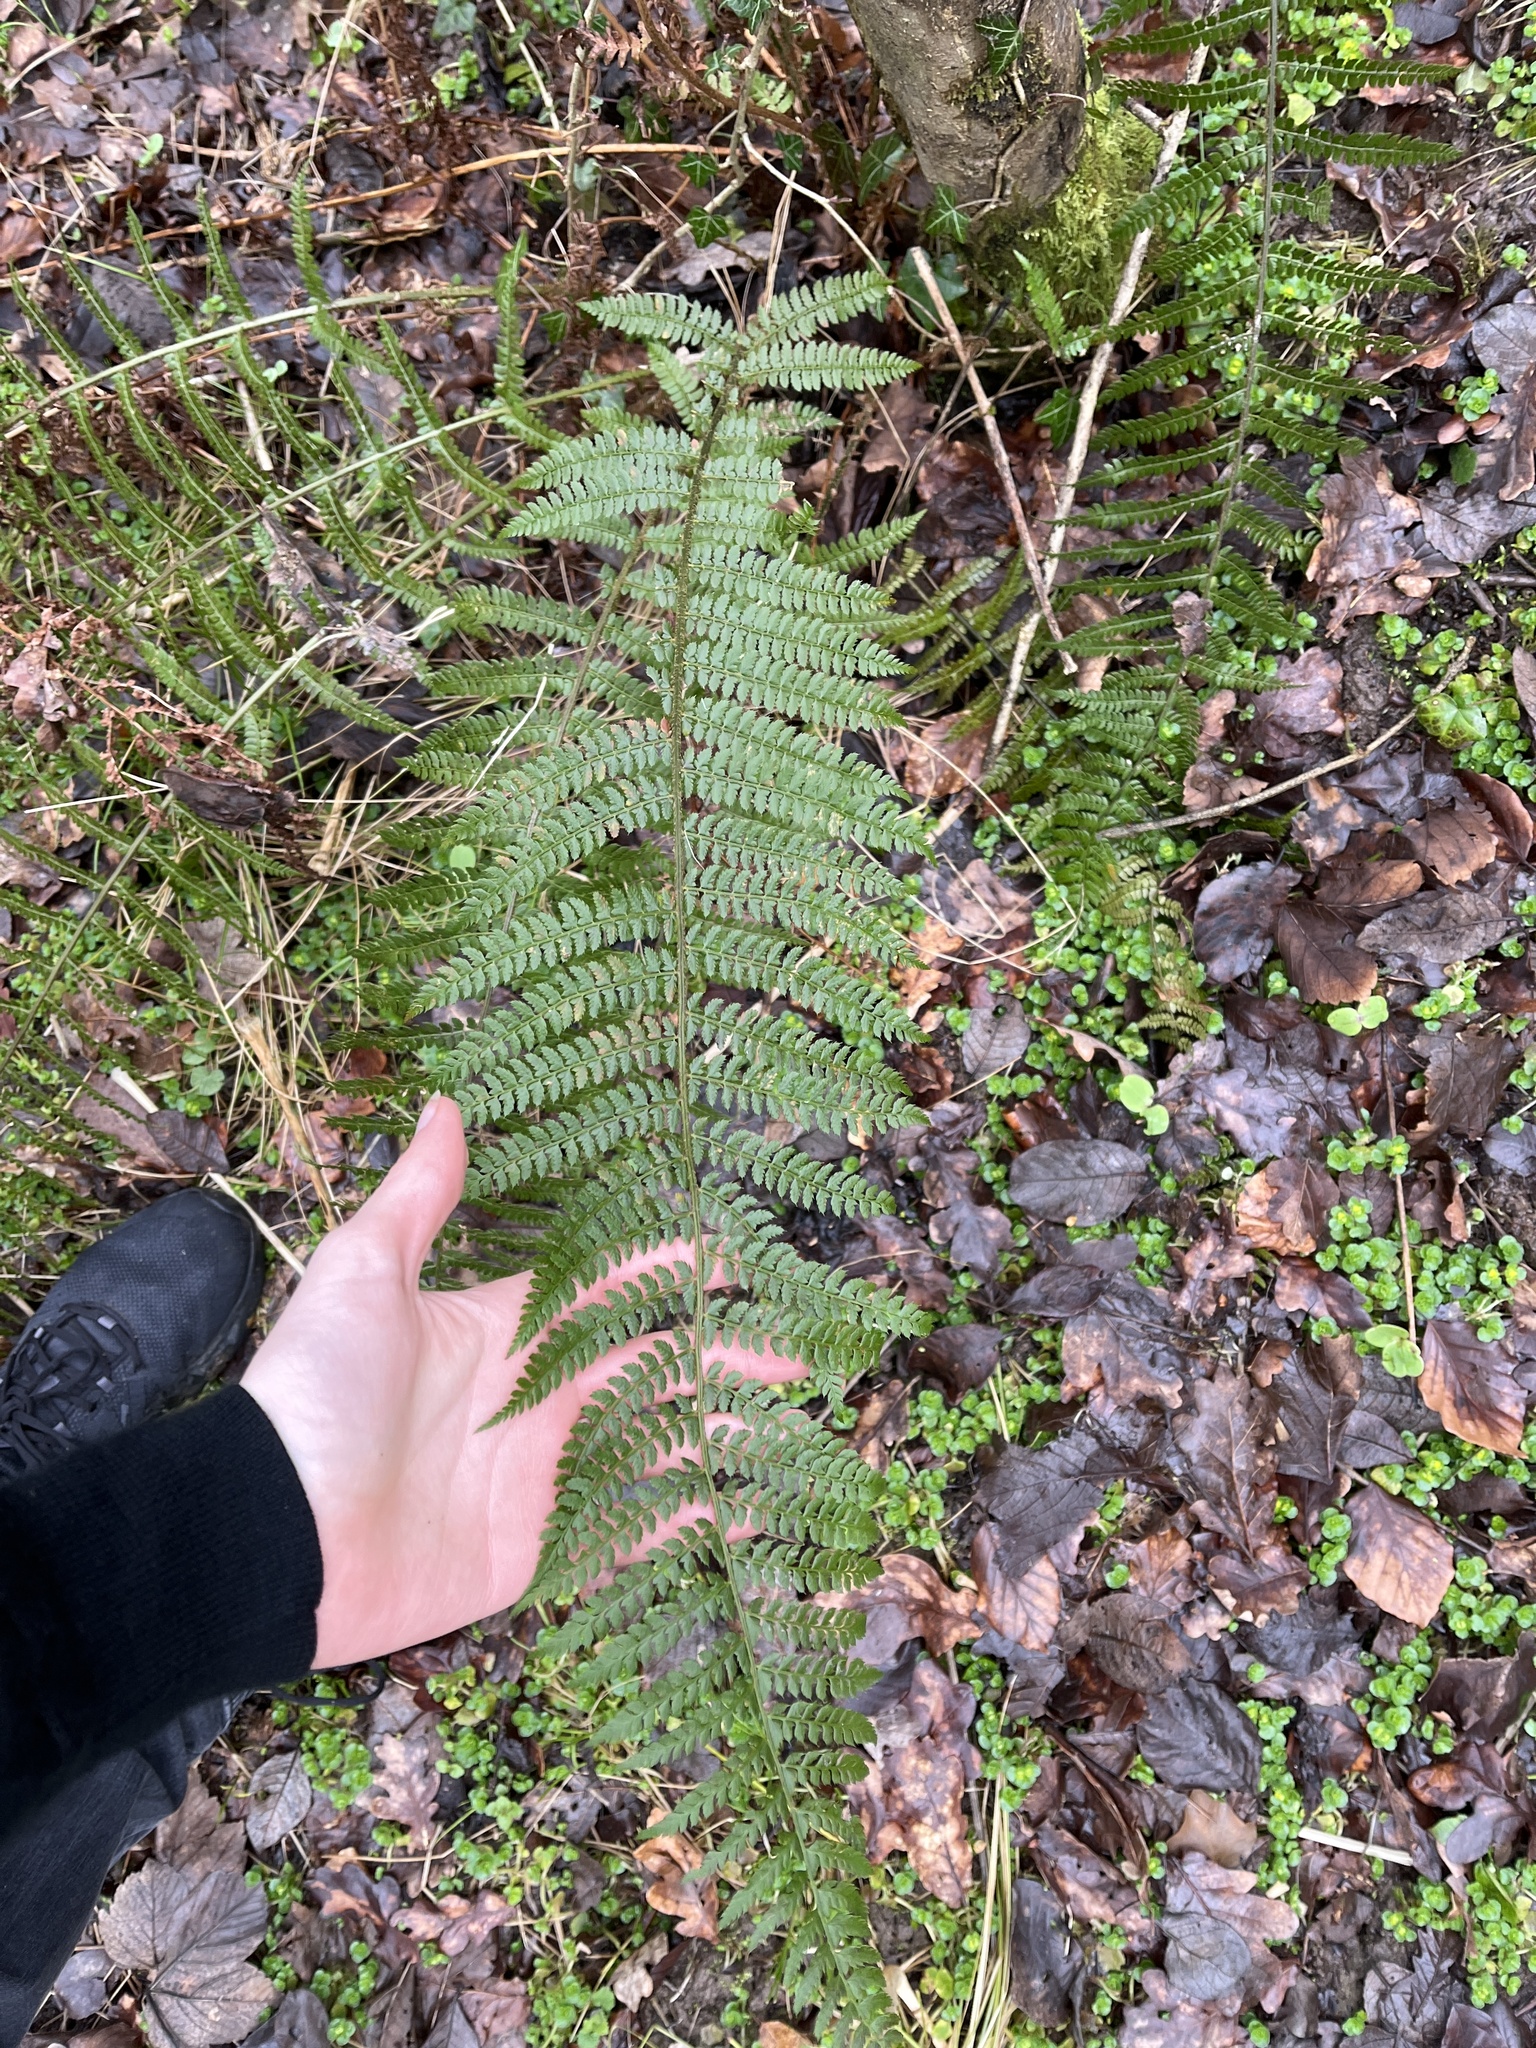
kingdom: Plantae
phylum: Tracheophyta
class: Polypodiopsida
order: Polypodiales
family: Dryopteridaceae
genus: Polystichum
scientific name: Polystichum setiferum
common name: Soft shield-fern
